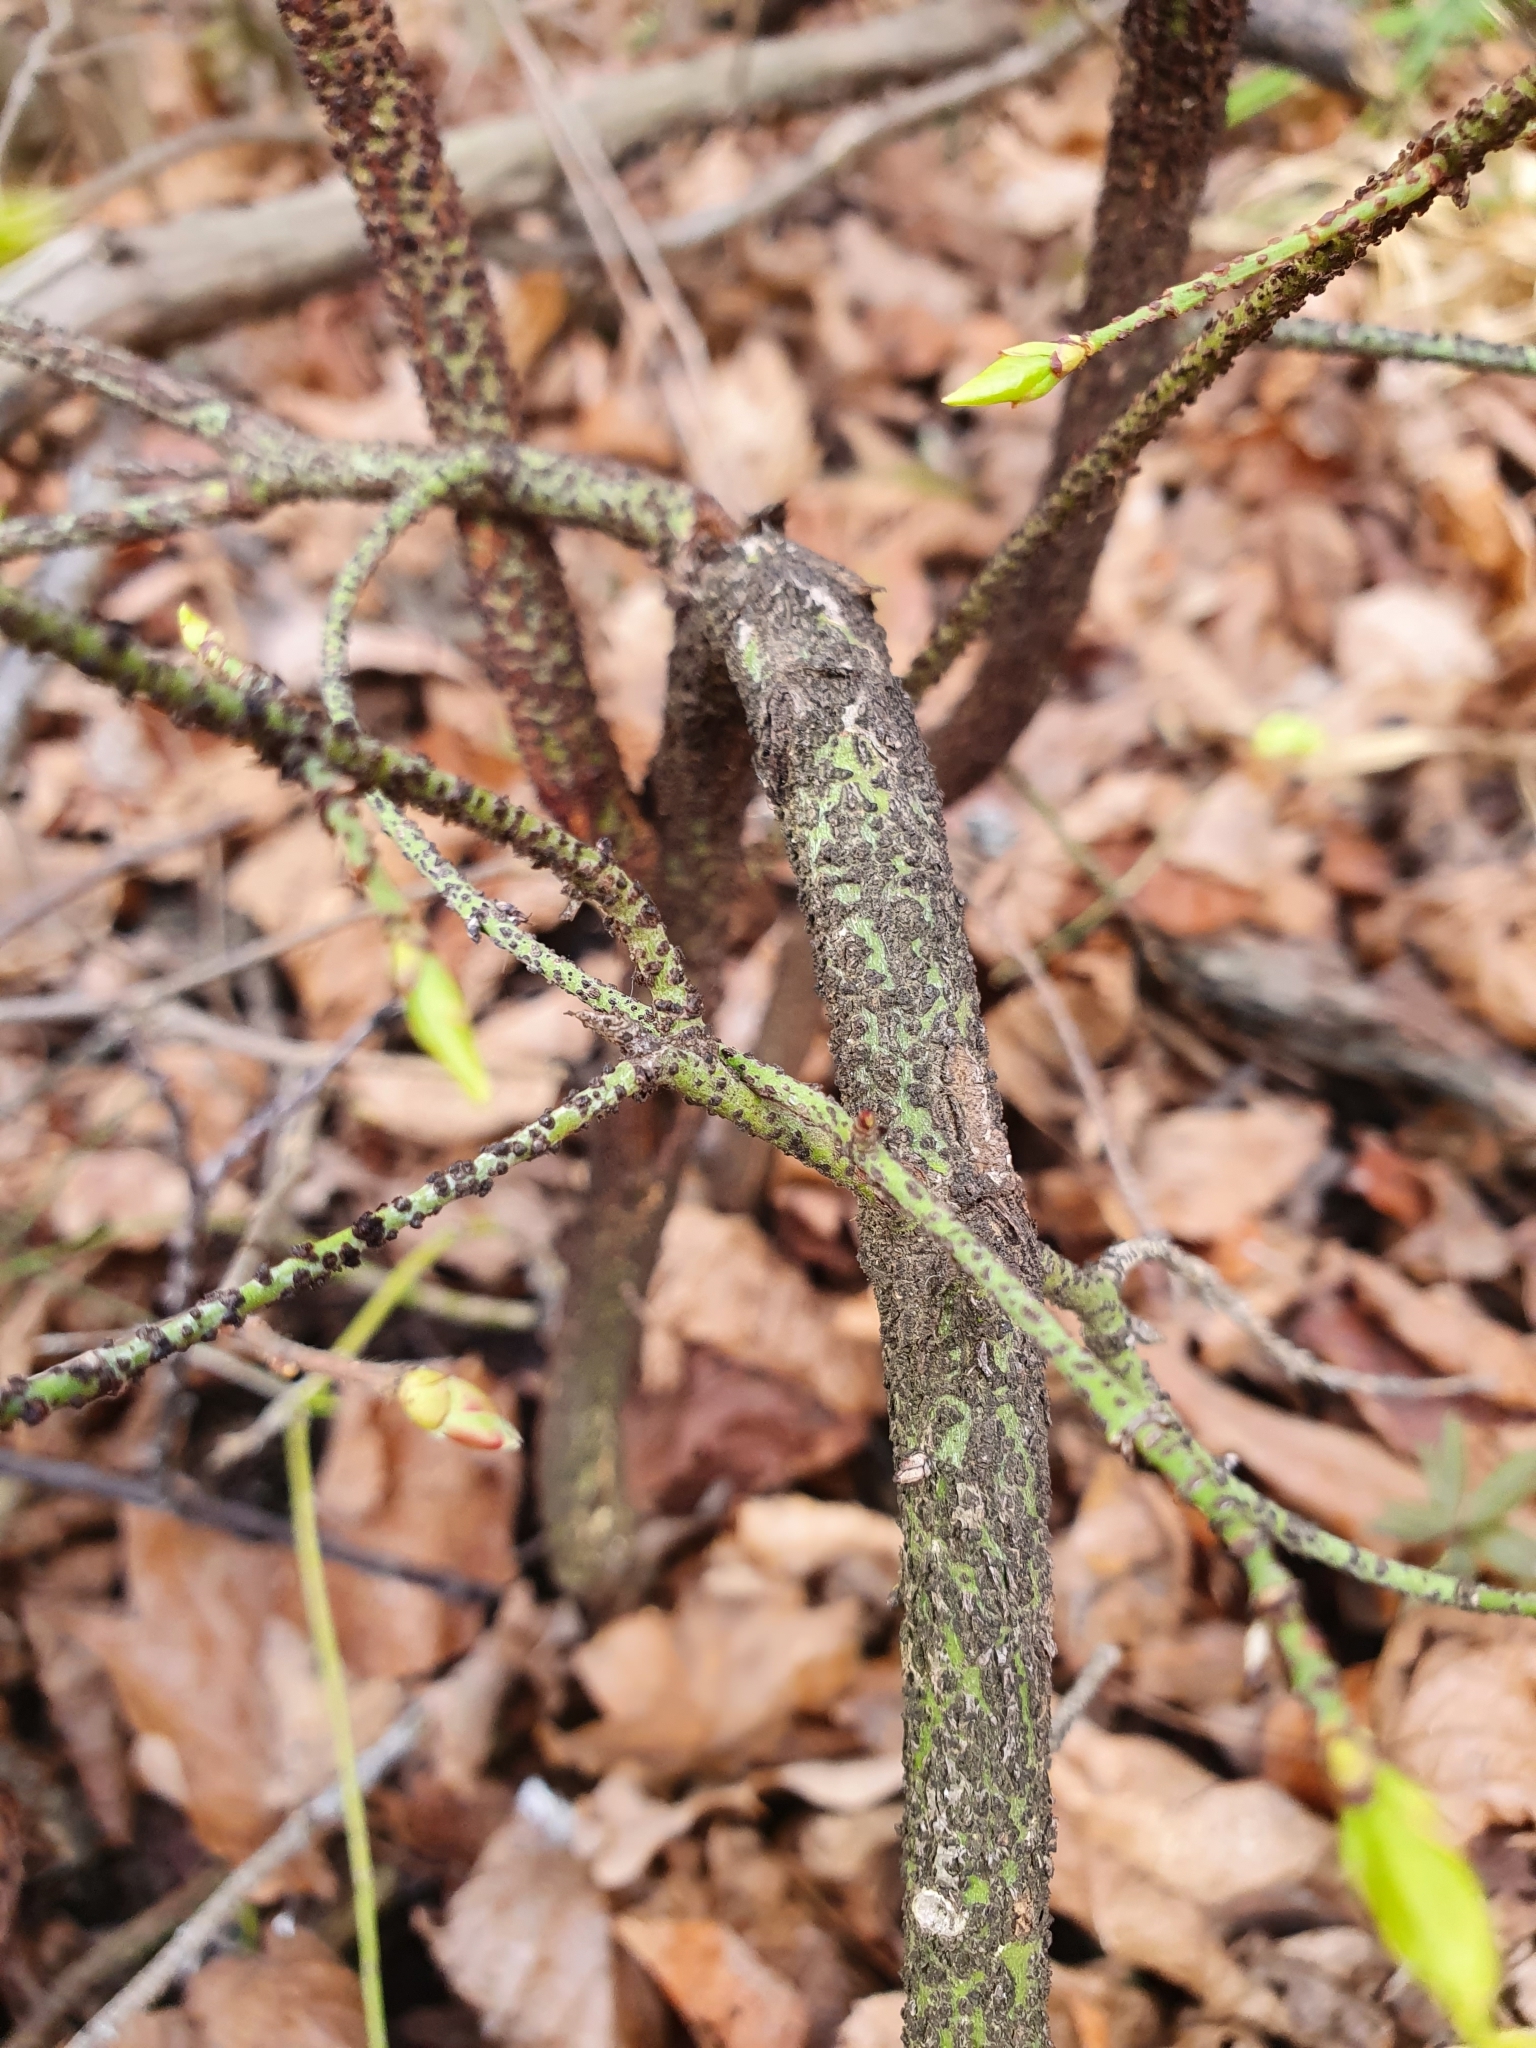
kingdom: Plantae
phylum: Tracheophyta
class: Magnoliopsida
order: Celastrales
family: Celastraceae
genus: Euonymus
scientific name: Euonymus verrucosus
